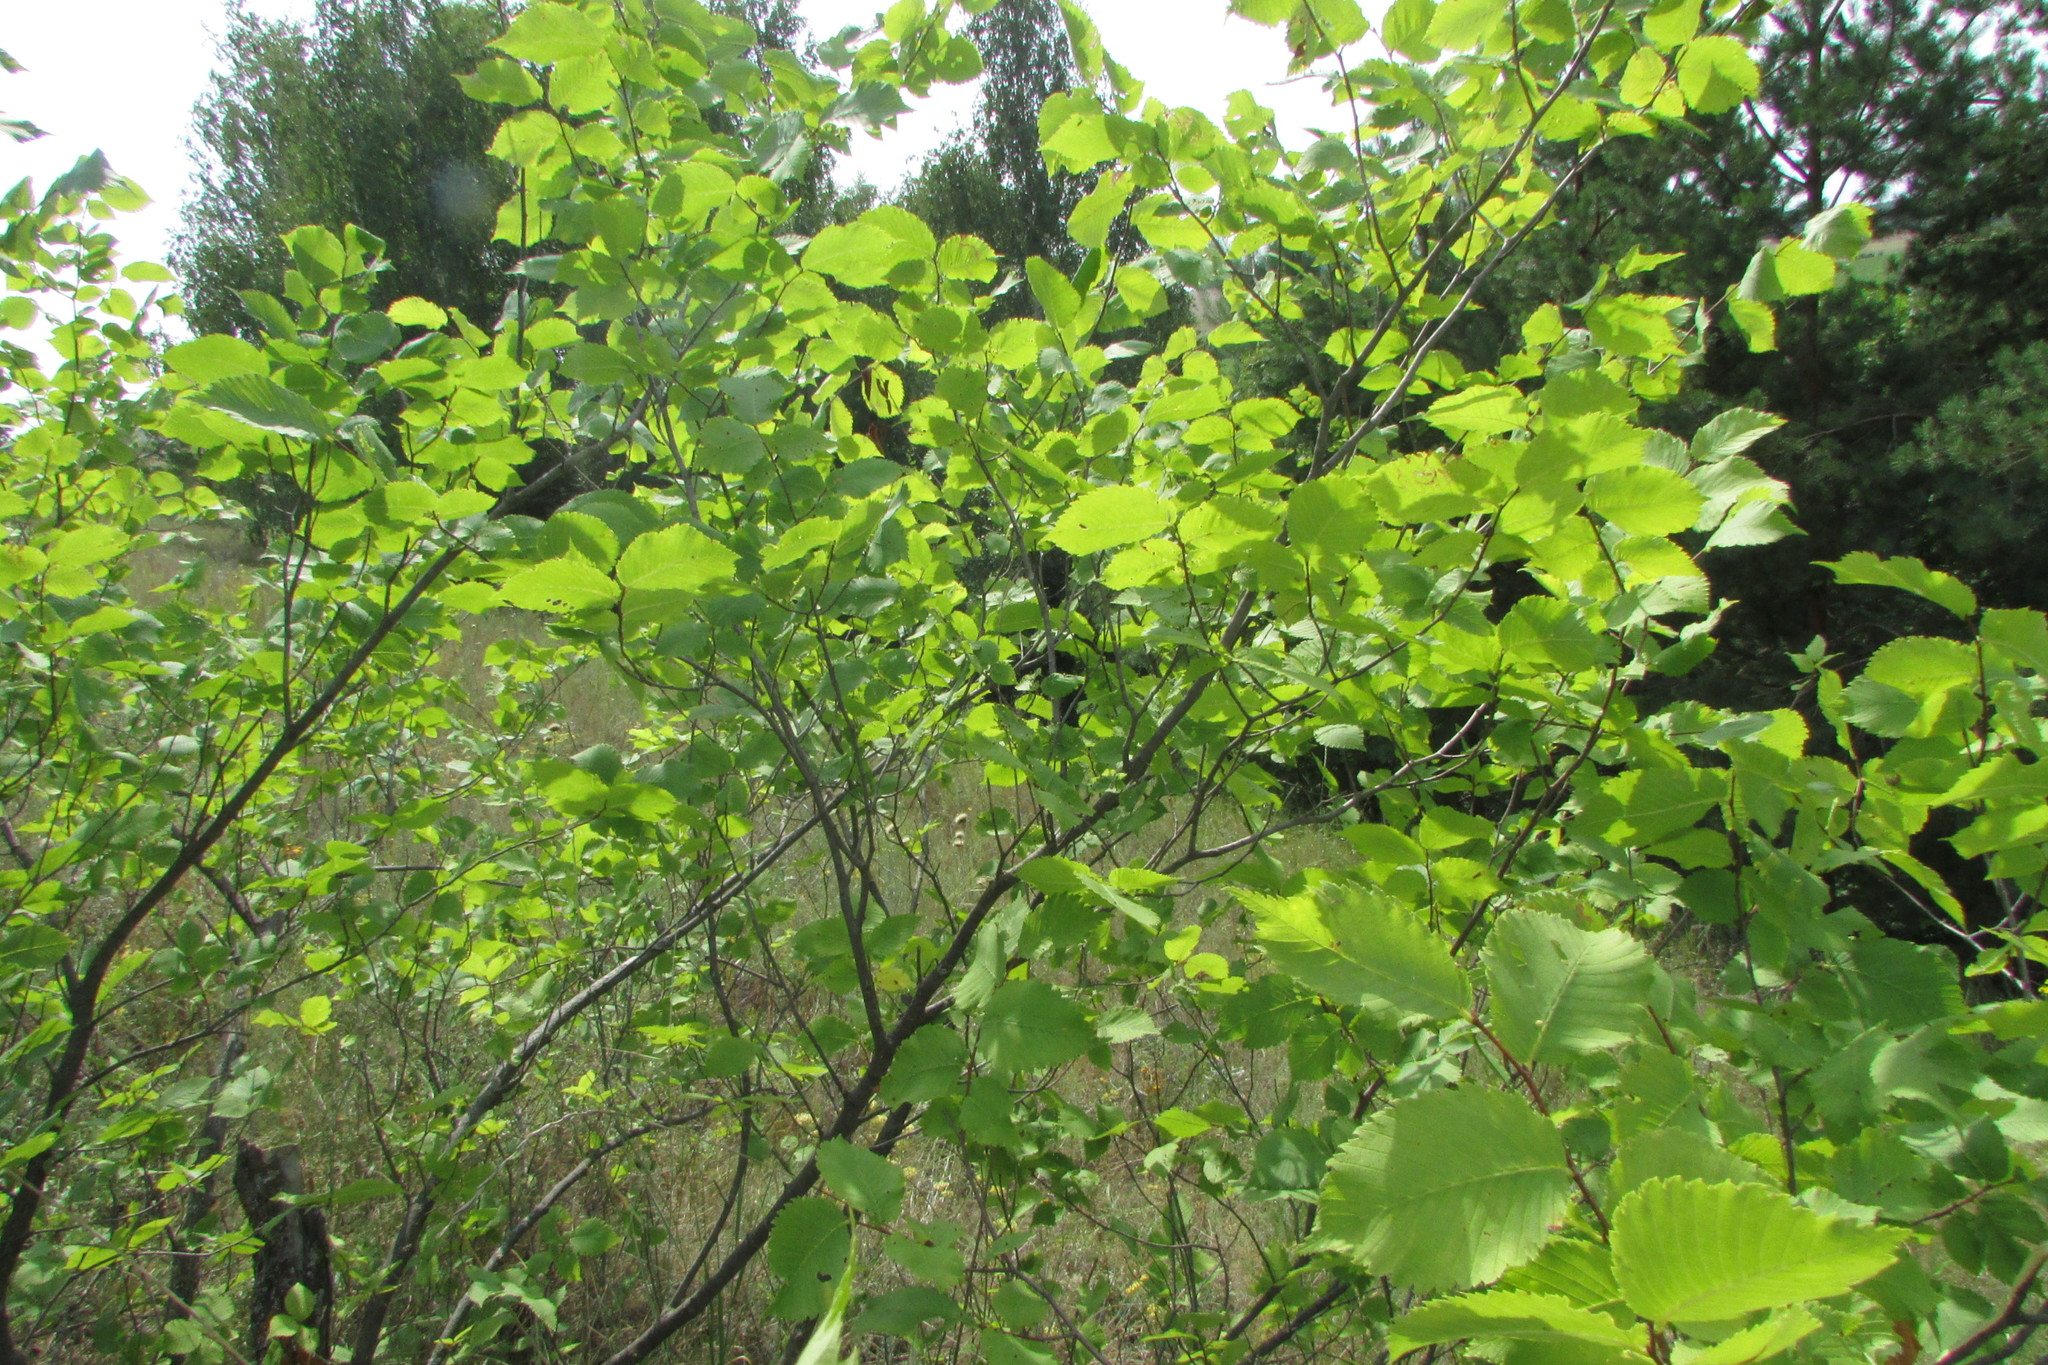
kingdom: Plantae
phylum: Tracheophyta
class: Magnoliopsida
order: Rosales
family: Ulmaceae
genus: Ulmus
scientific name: Ulmus laevis
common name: European white-elm
